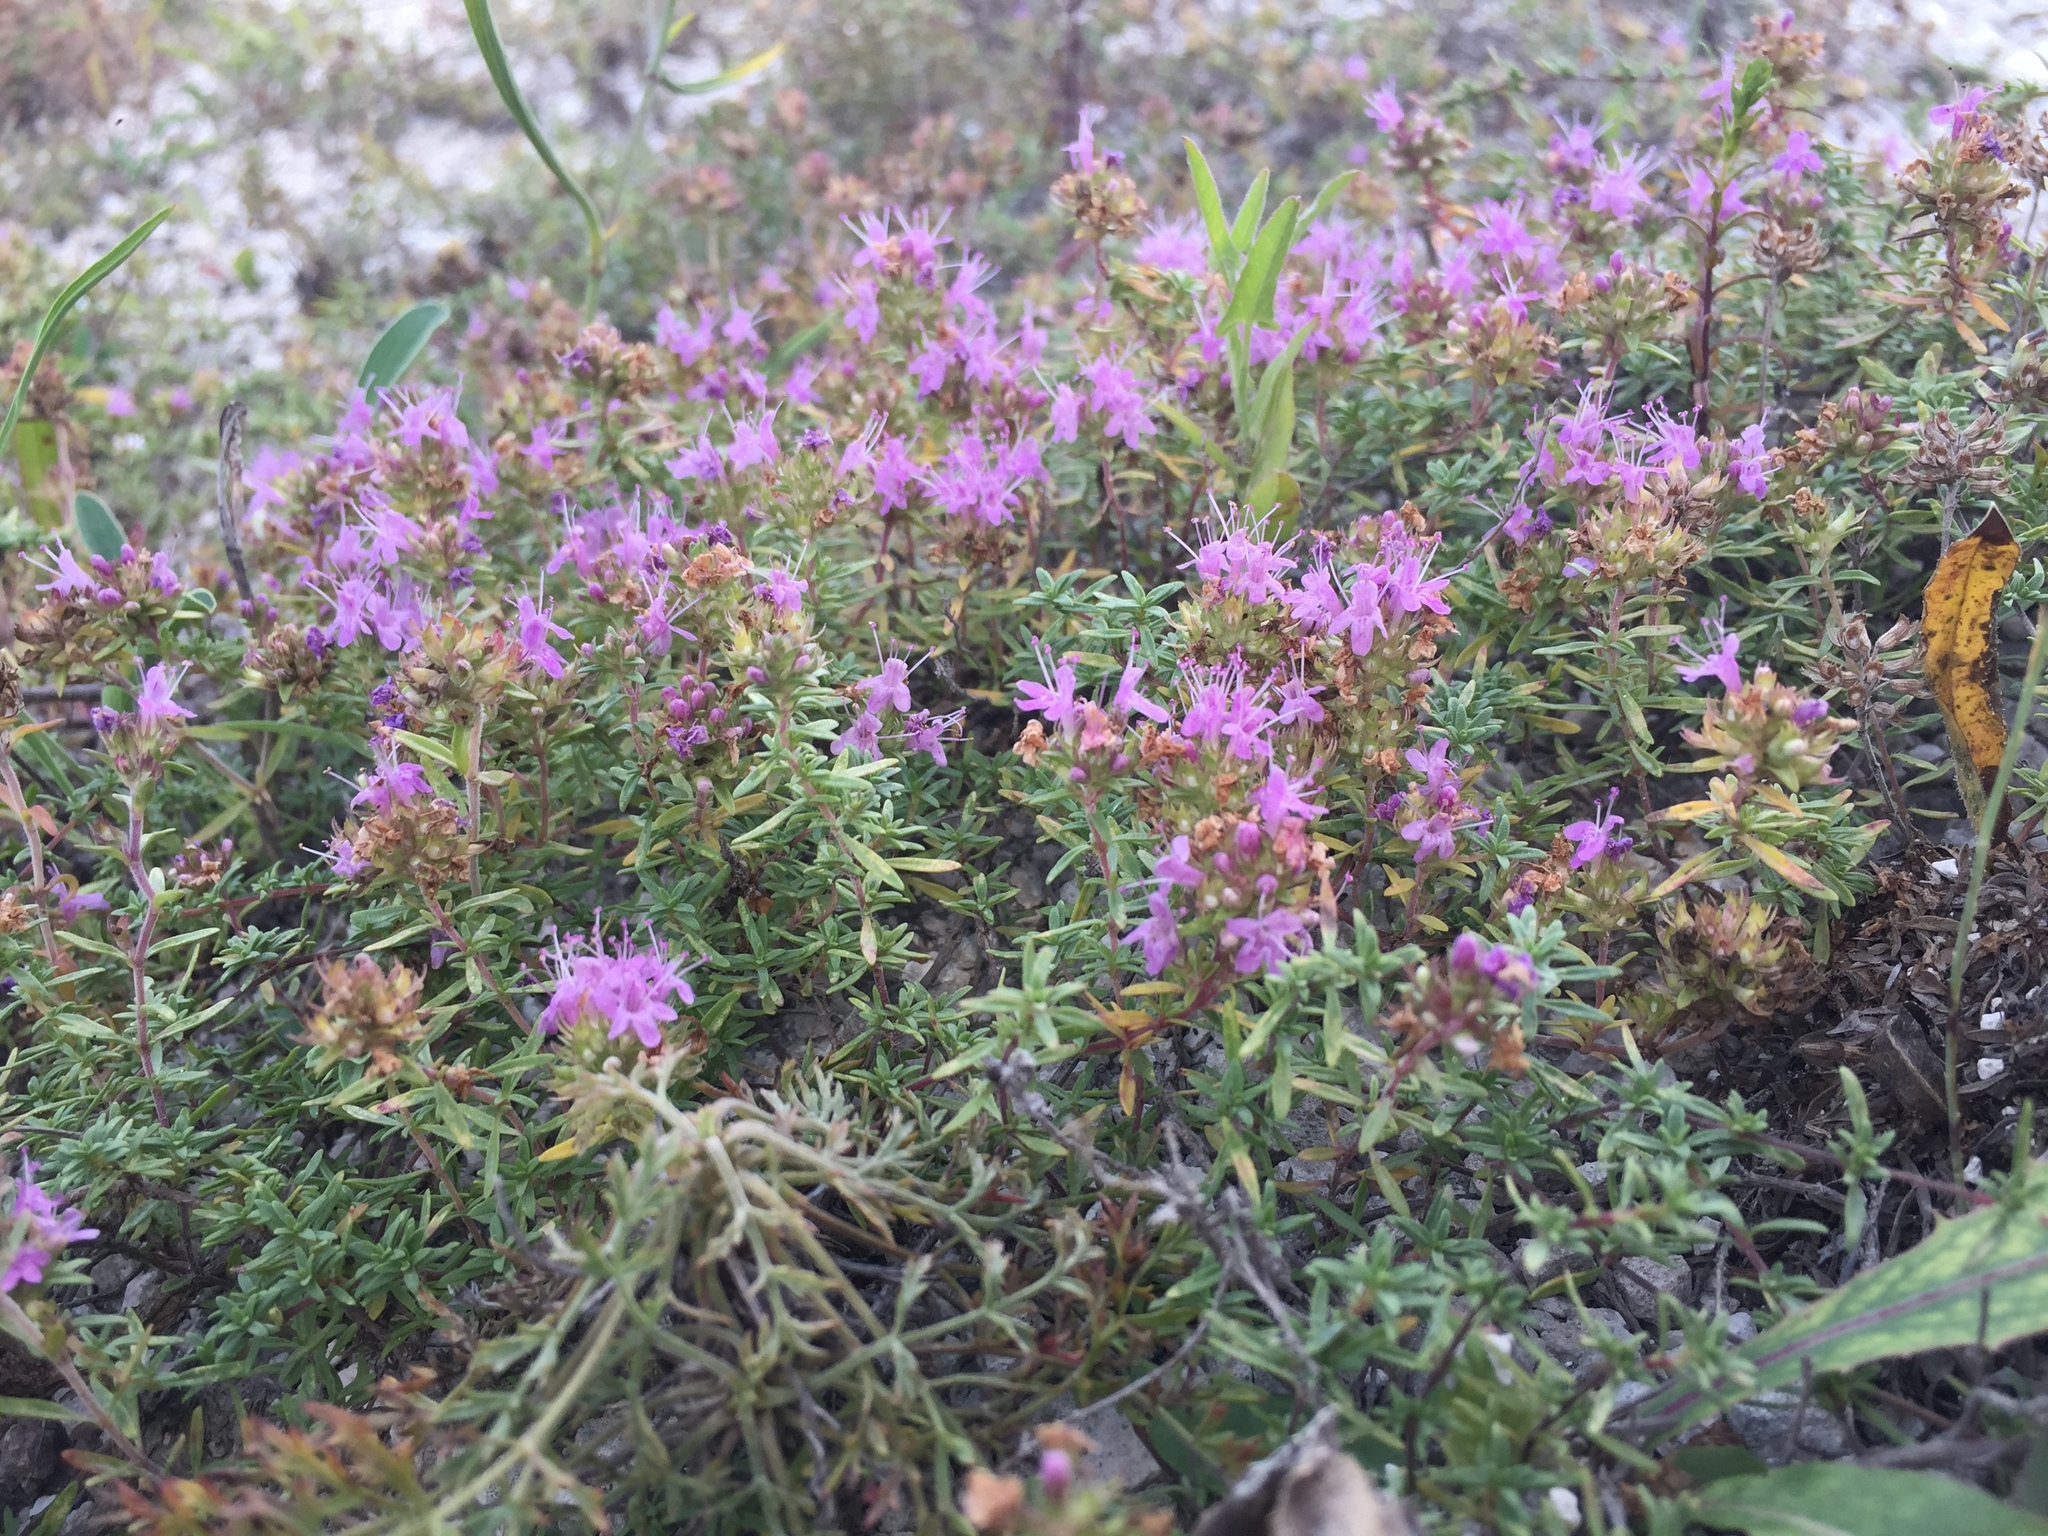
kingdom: Plantae
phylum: Tracheophyta
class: Magnoliopsida
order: Lamiales
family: Lamiaceae
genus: Thymus
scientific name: Thymus calcareus
